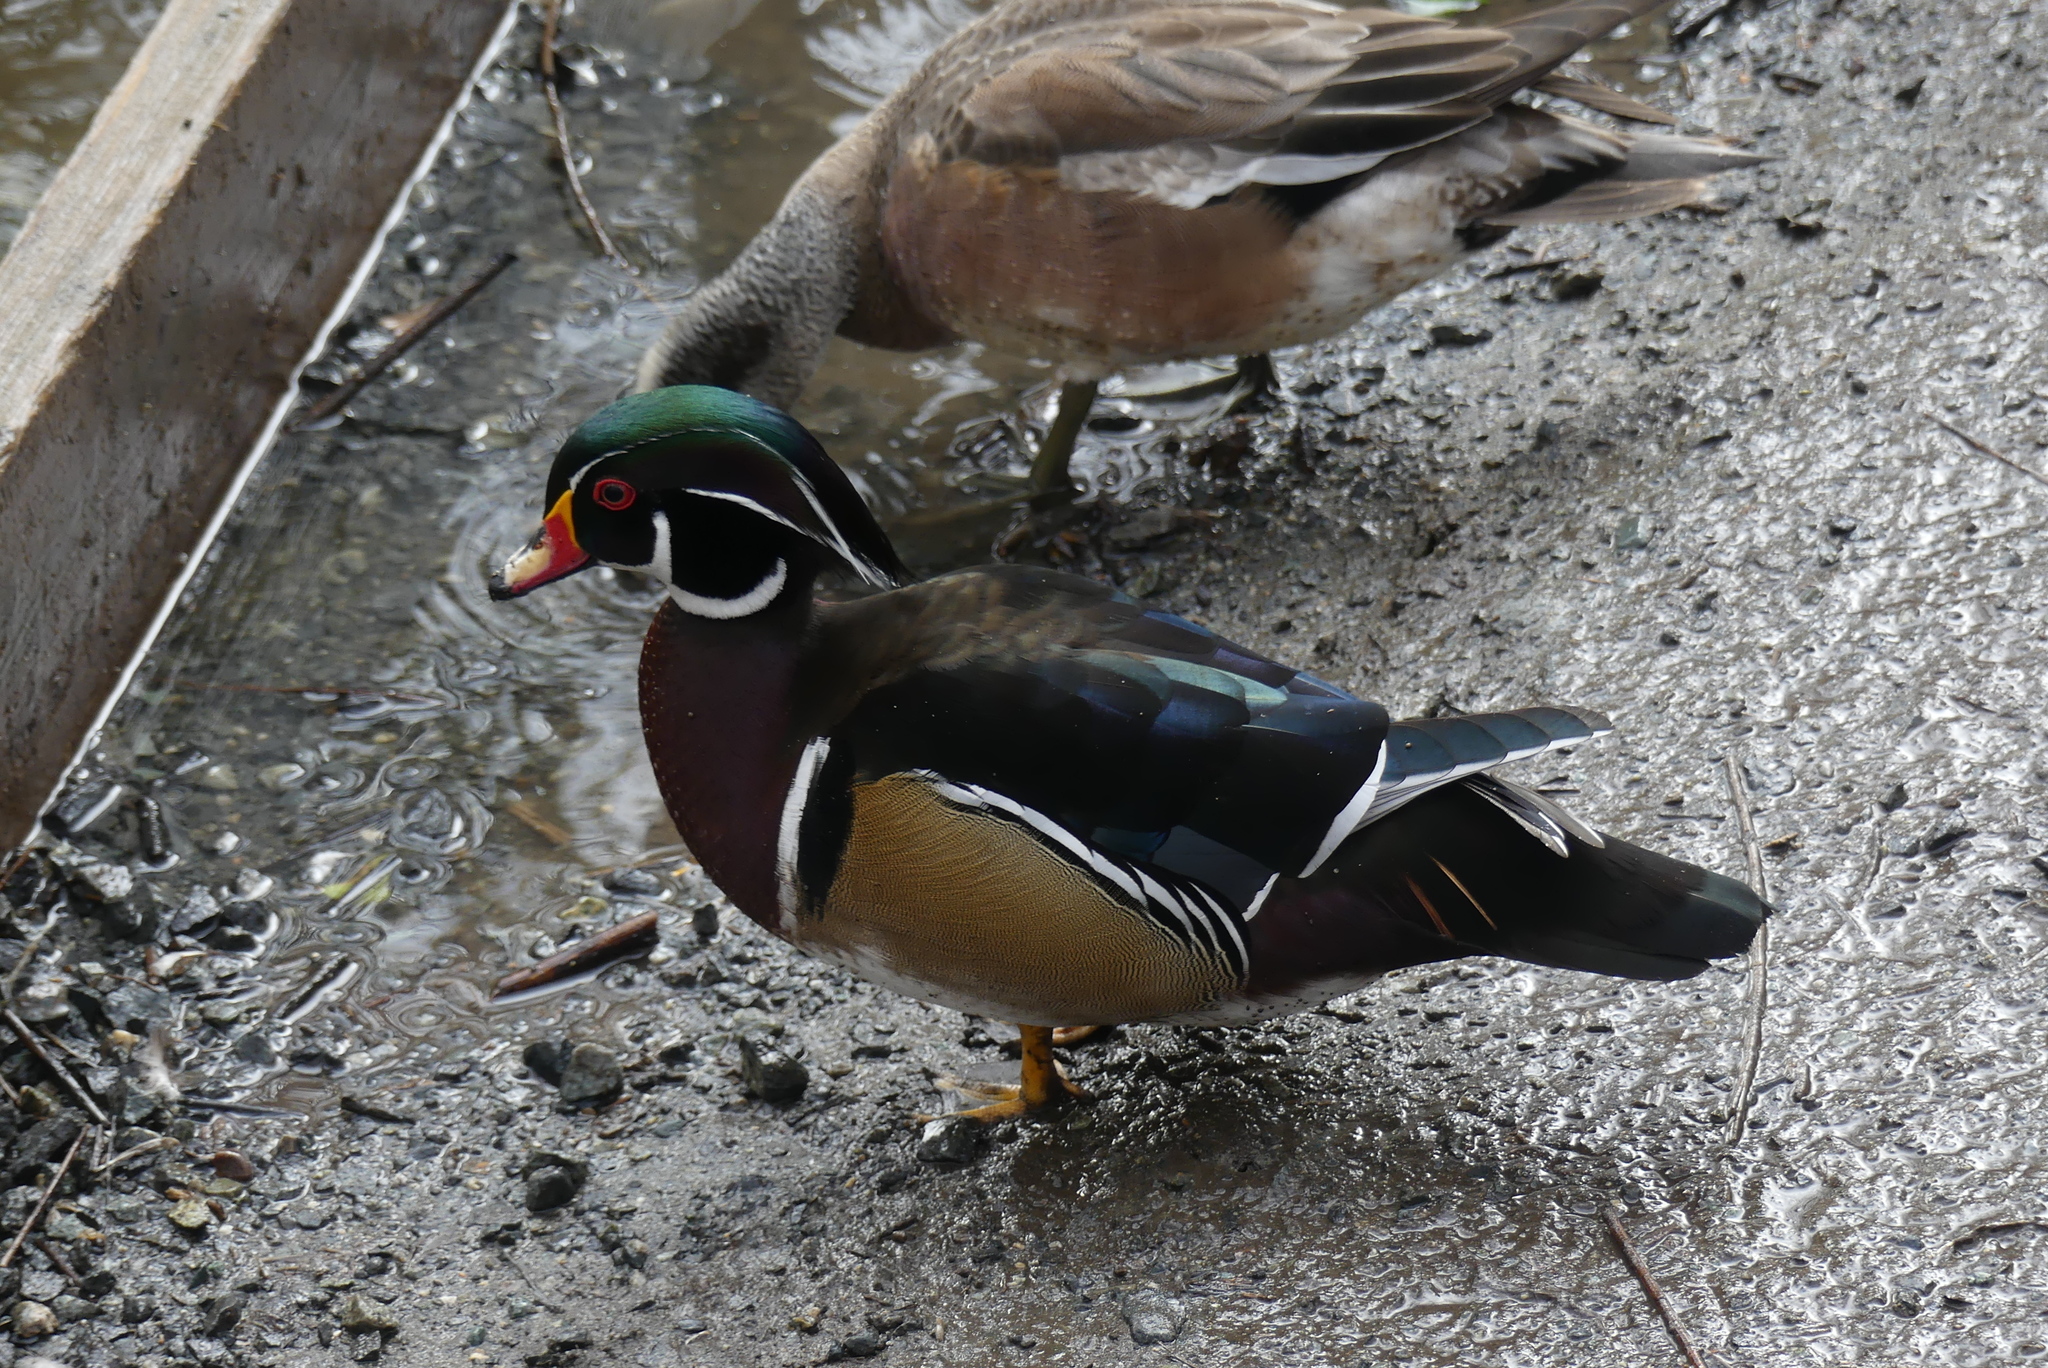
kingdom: Animalia
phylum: Chordata
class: Aves
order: Anseriformes
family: Anatidae
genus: Aix
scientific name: Aix sponsa
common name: Wood duck
